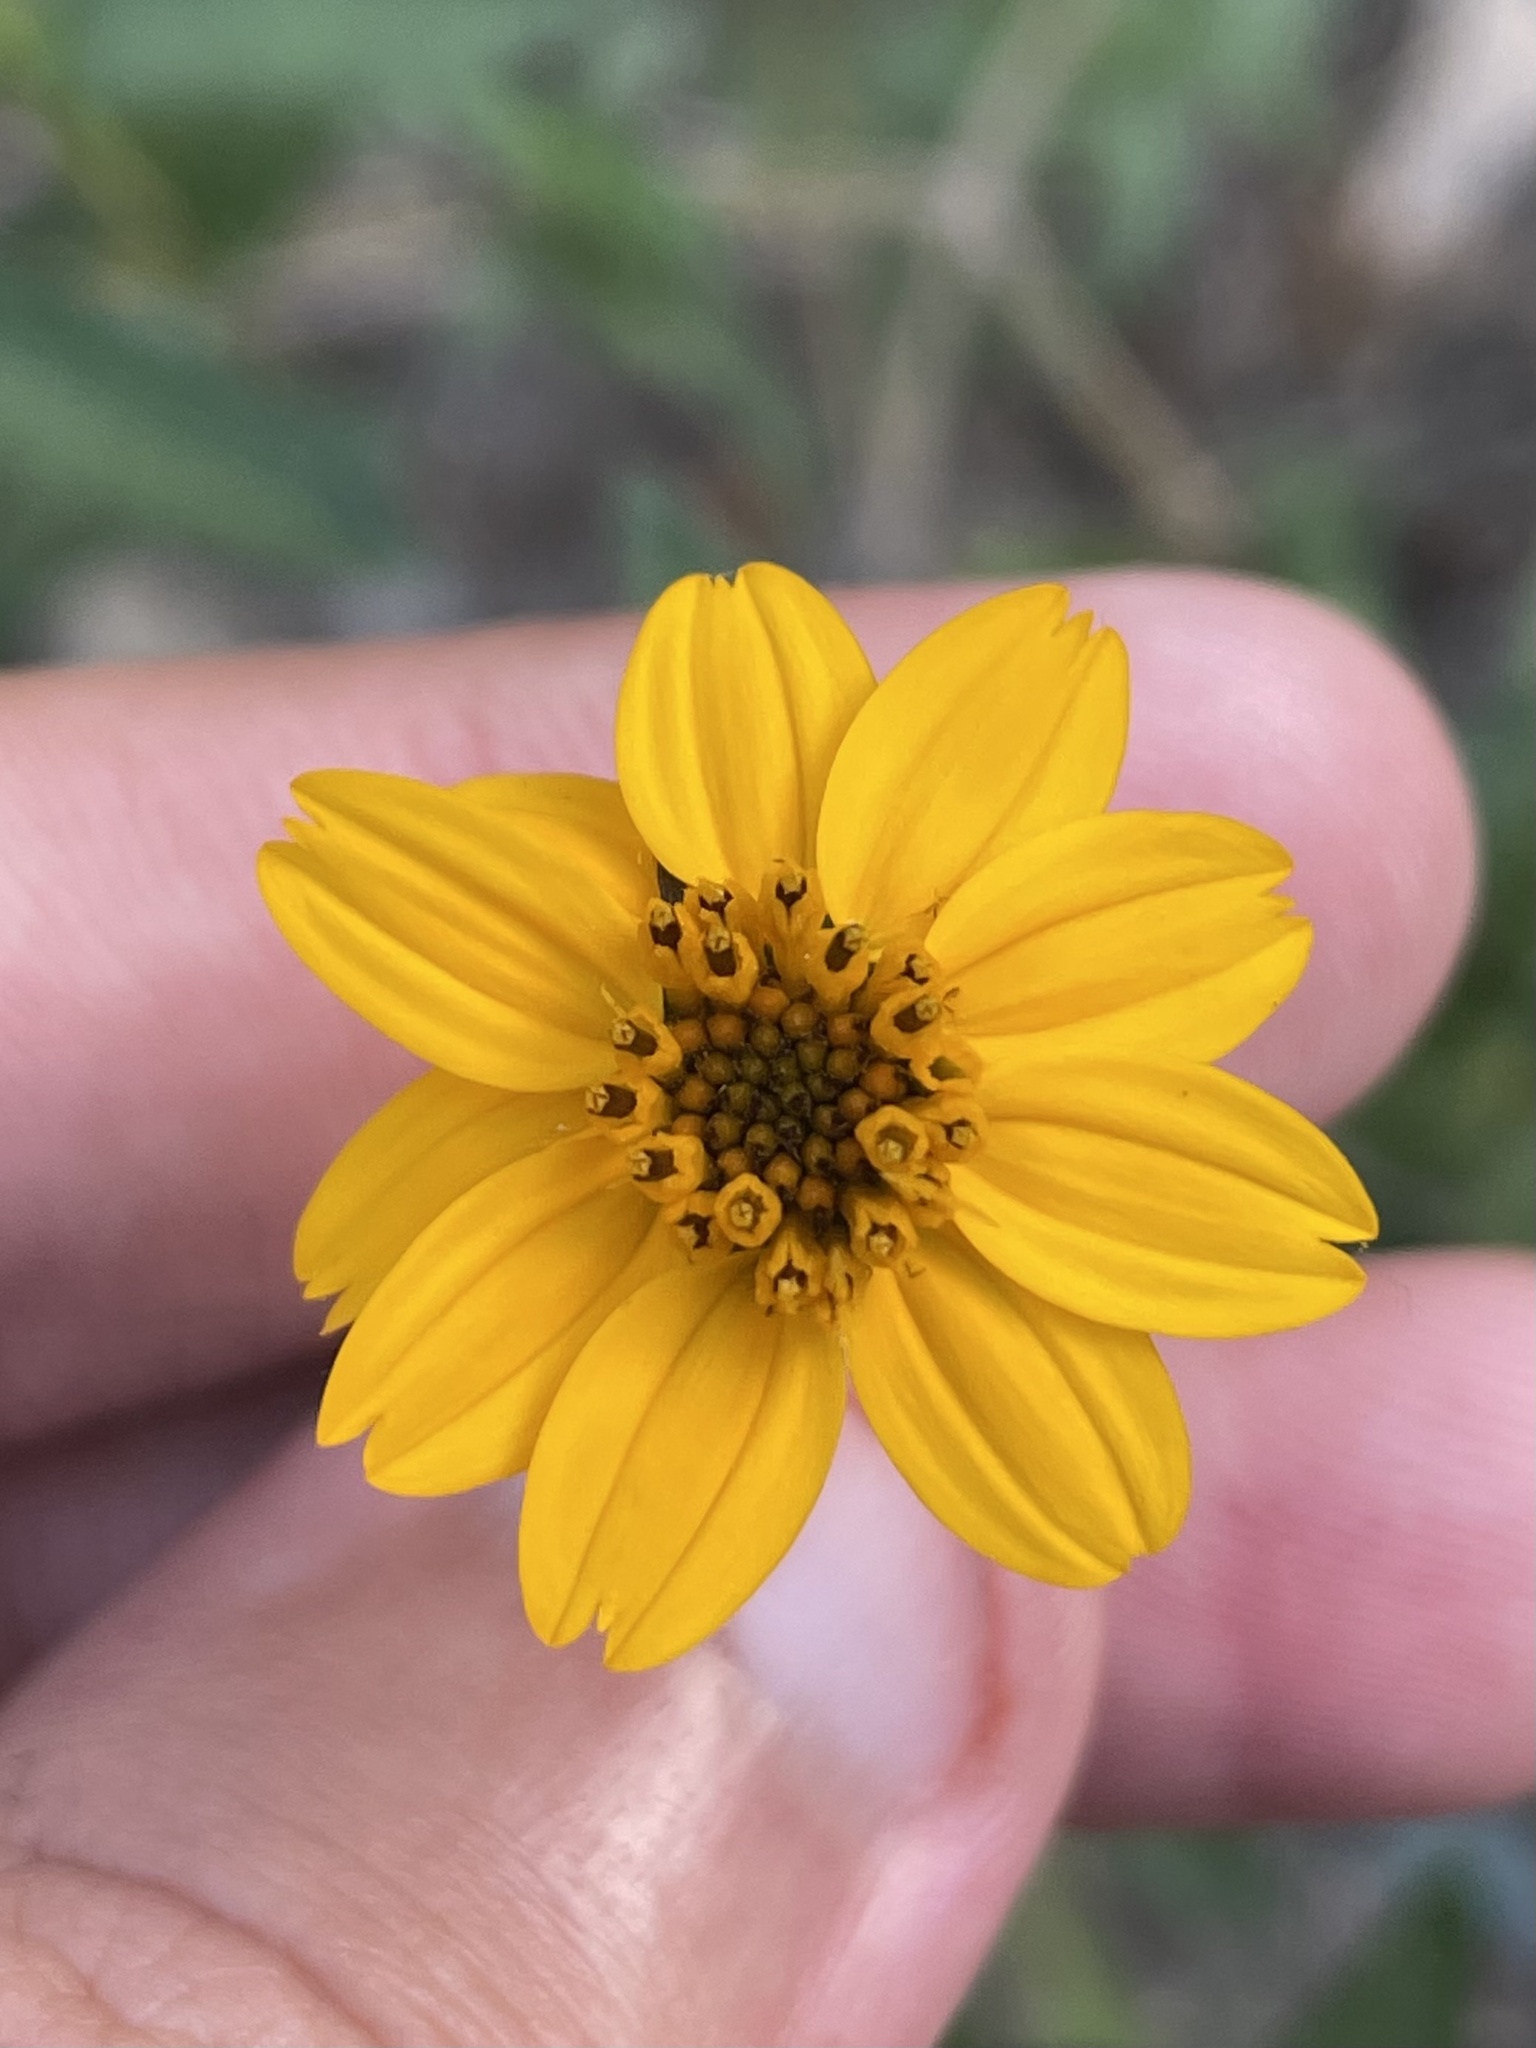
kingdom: Plantae
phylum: Tracheophyta
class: Magnoliopsida
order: Asterales
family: Asteraceae
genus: Wedelia
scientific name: Wedelia acapulcensis
